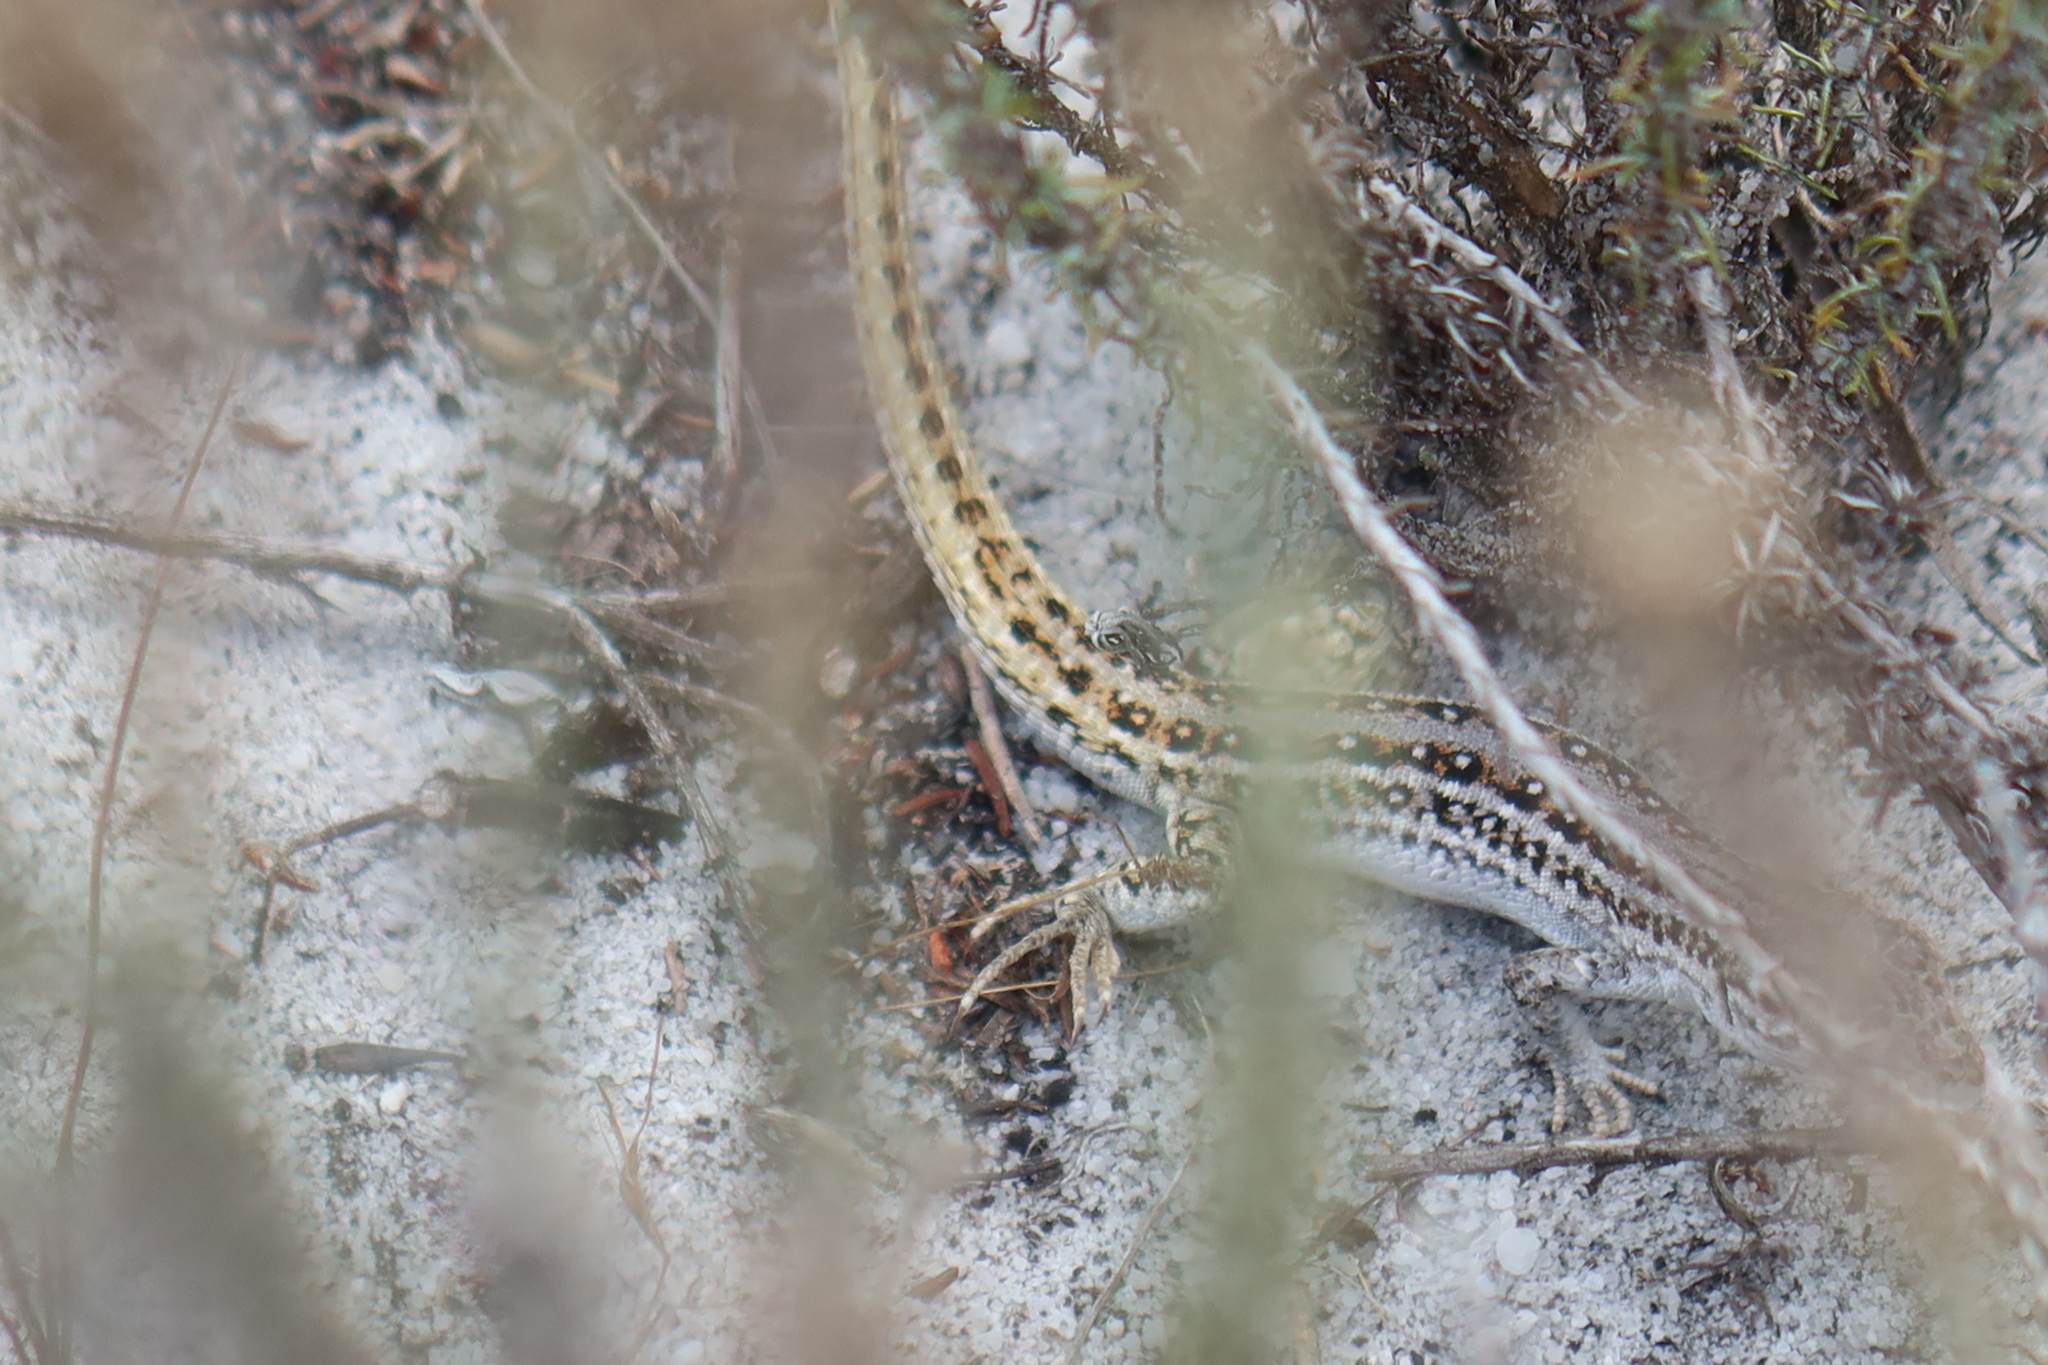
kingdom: Animalia
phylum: Chordata
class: Squamata
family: Lacertidae
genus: Meroles
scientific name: Meroles knoxii
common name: Knox's desert lizard
